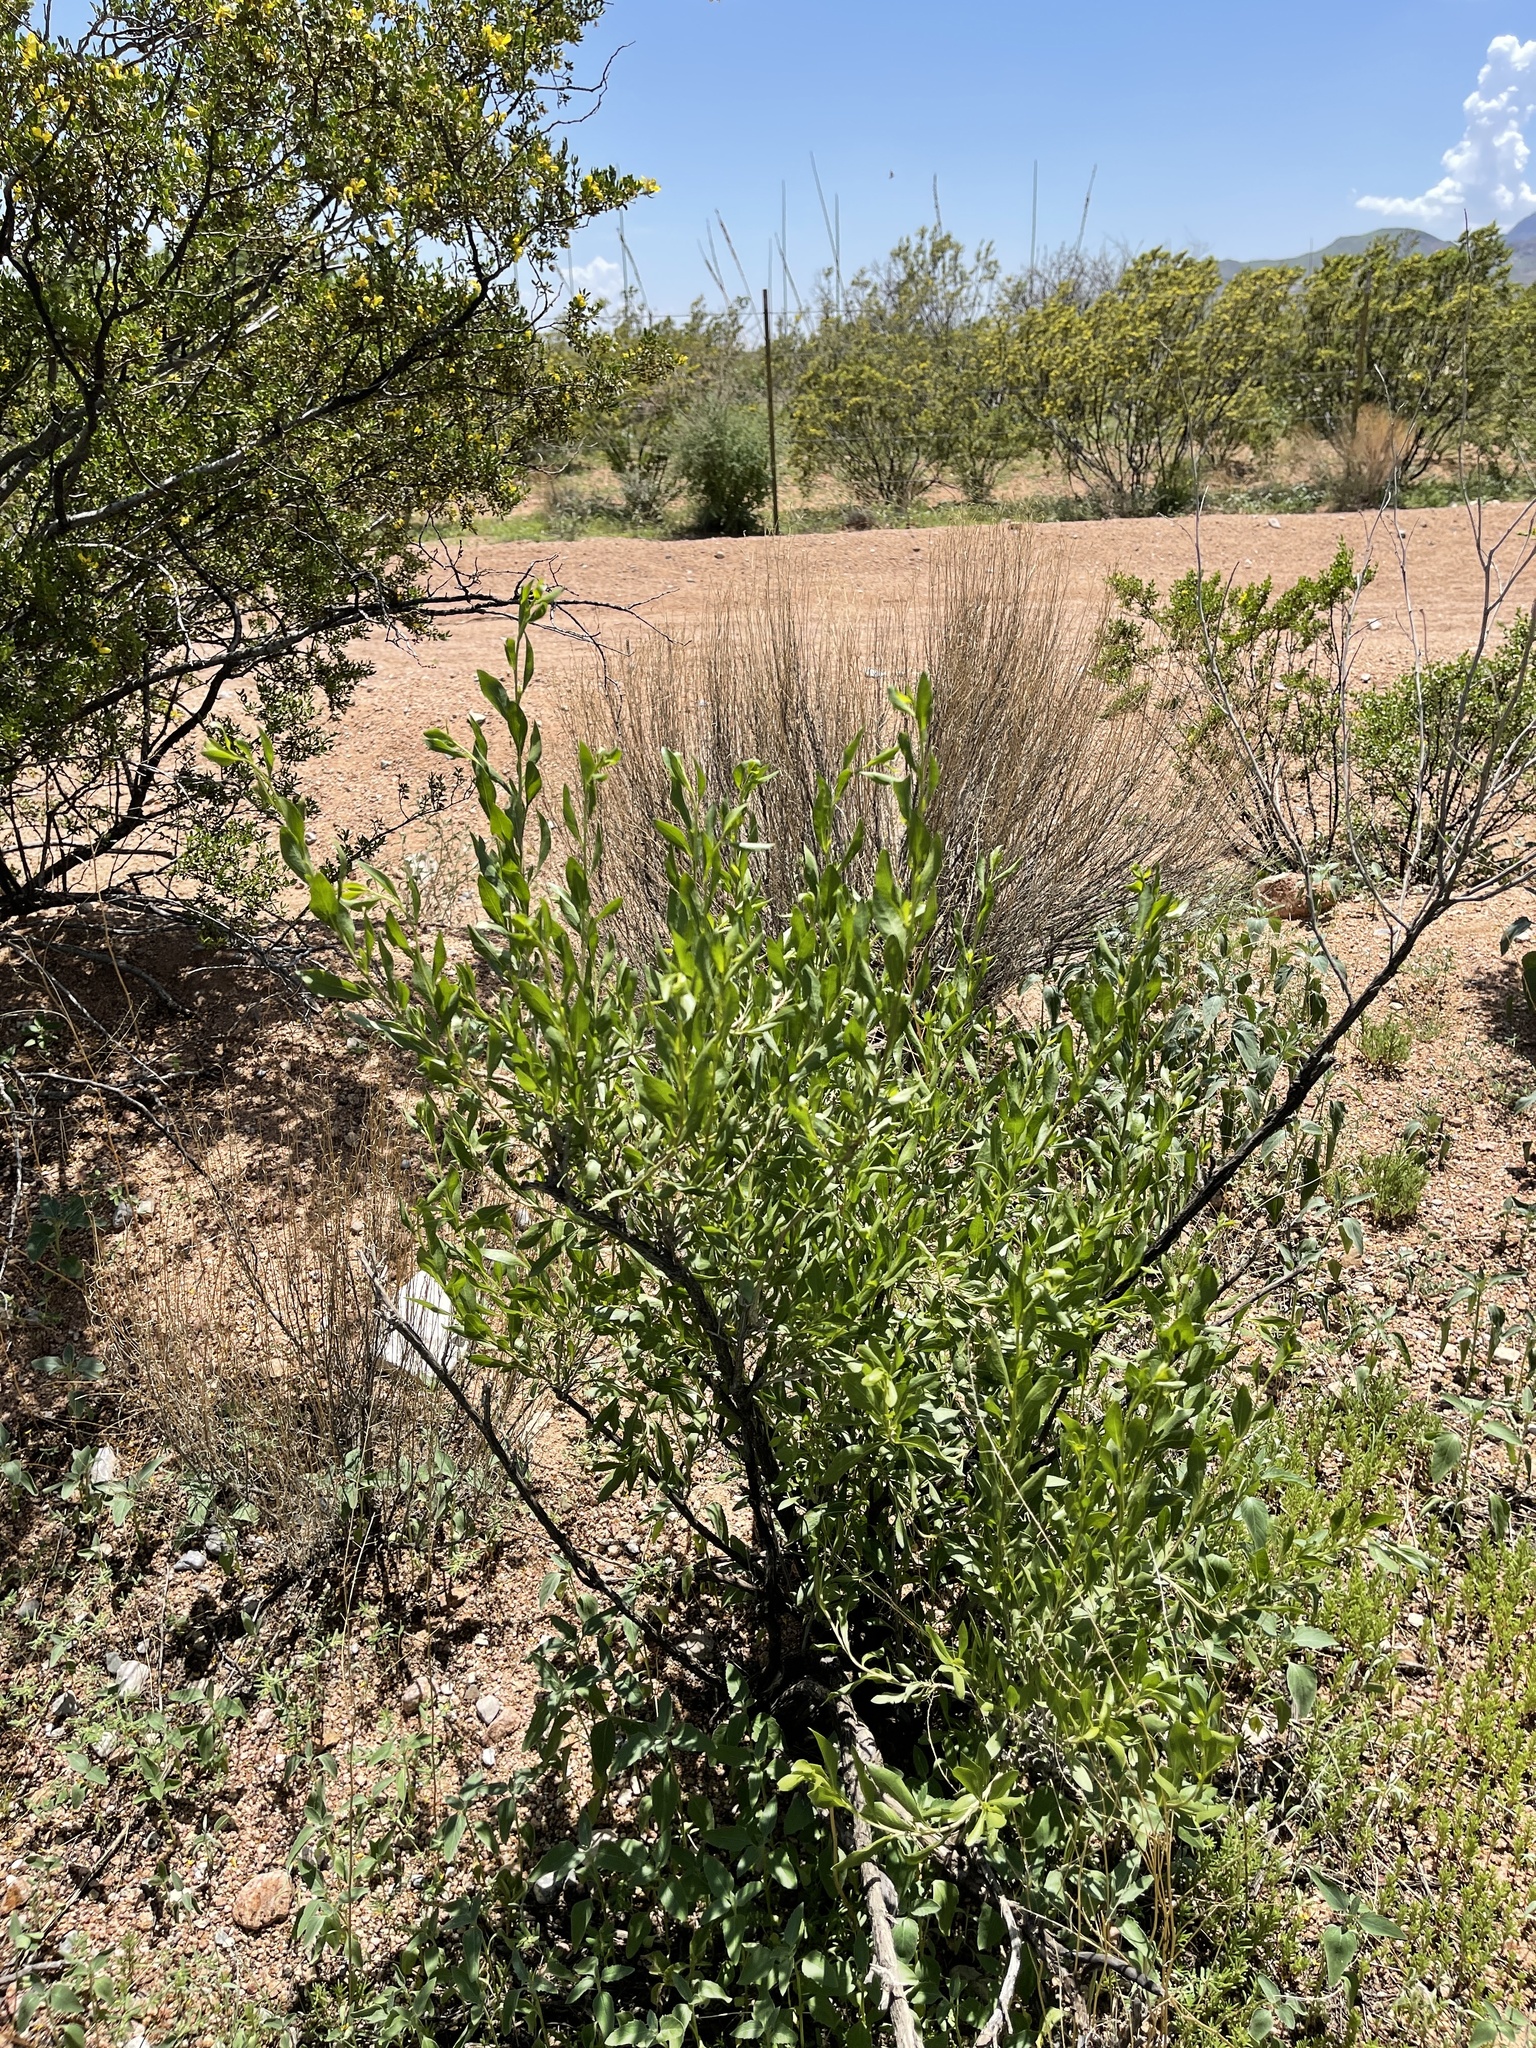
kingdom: Plantae
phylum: Tracheophyta
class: Magnoliopsida
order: Asterales
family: Asteraceae
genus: Flourensia
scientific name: Flourensia cernua
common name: Varnishbush
